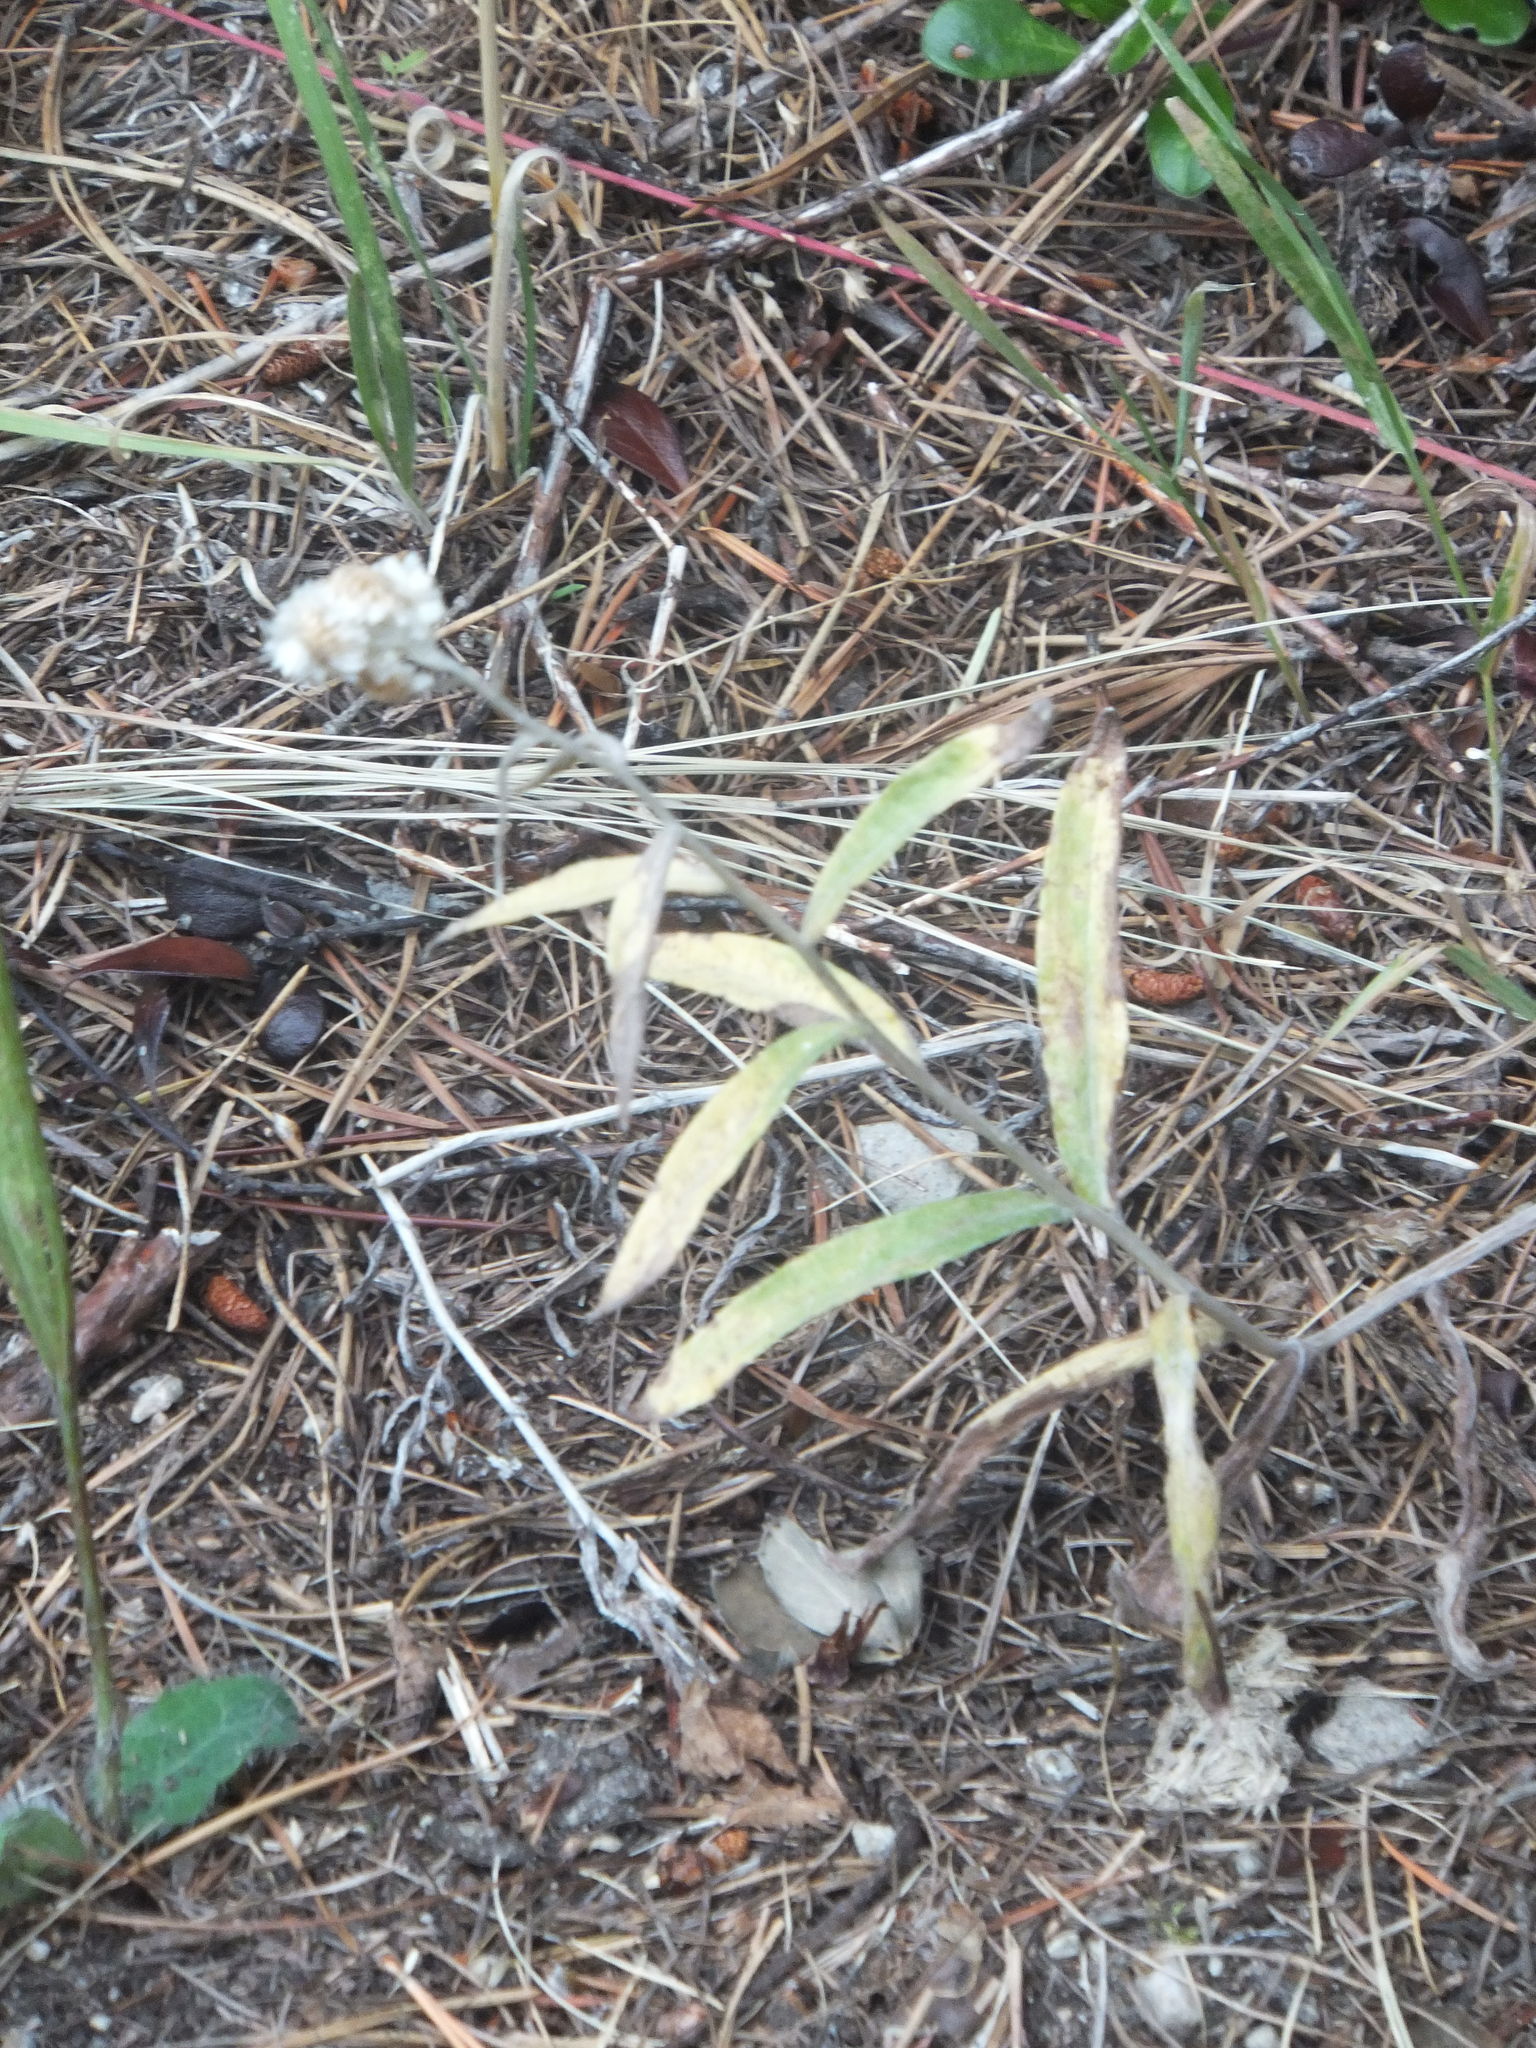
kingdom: Plantae
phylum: Tracheophyta
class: Magnoliopsida
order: Asterales
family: Asteraceae
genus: Anaphalis
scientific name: Anaphalis margaritacea
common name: Pearly everlasting
